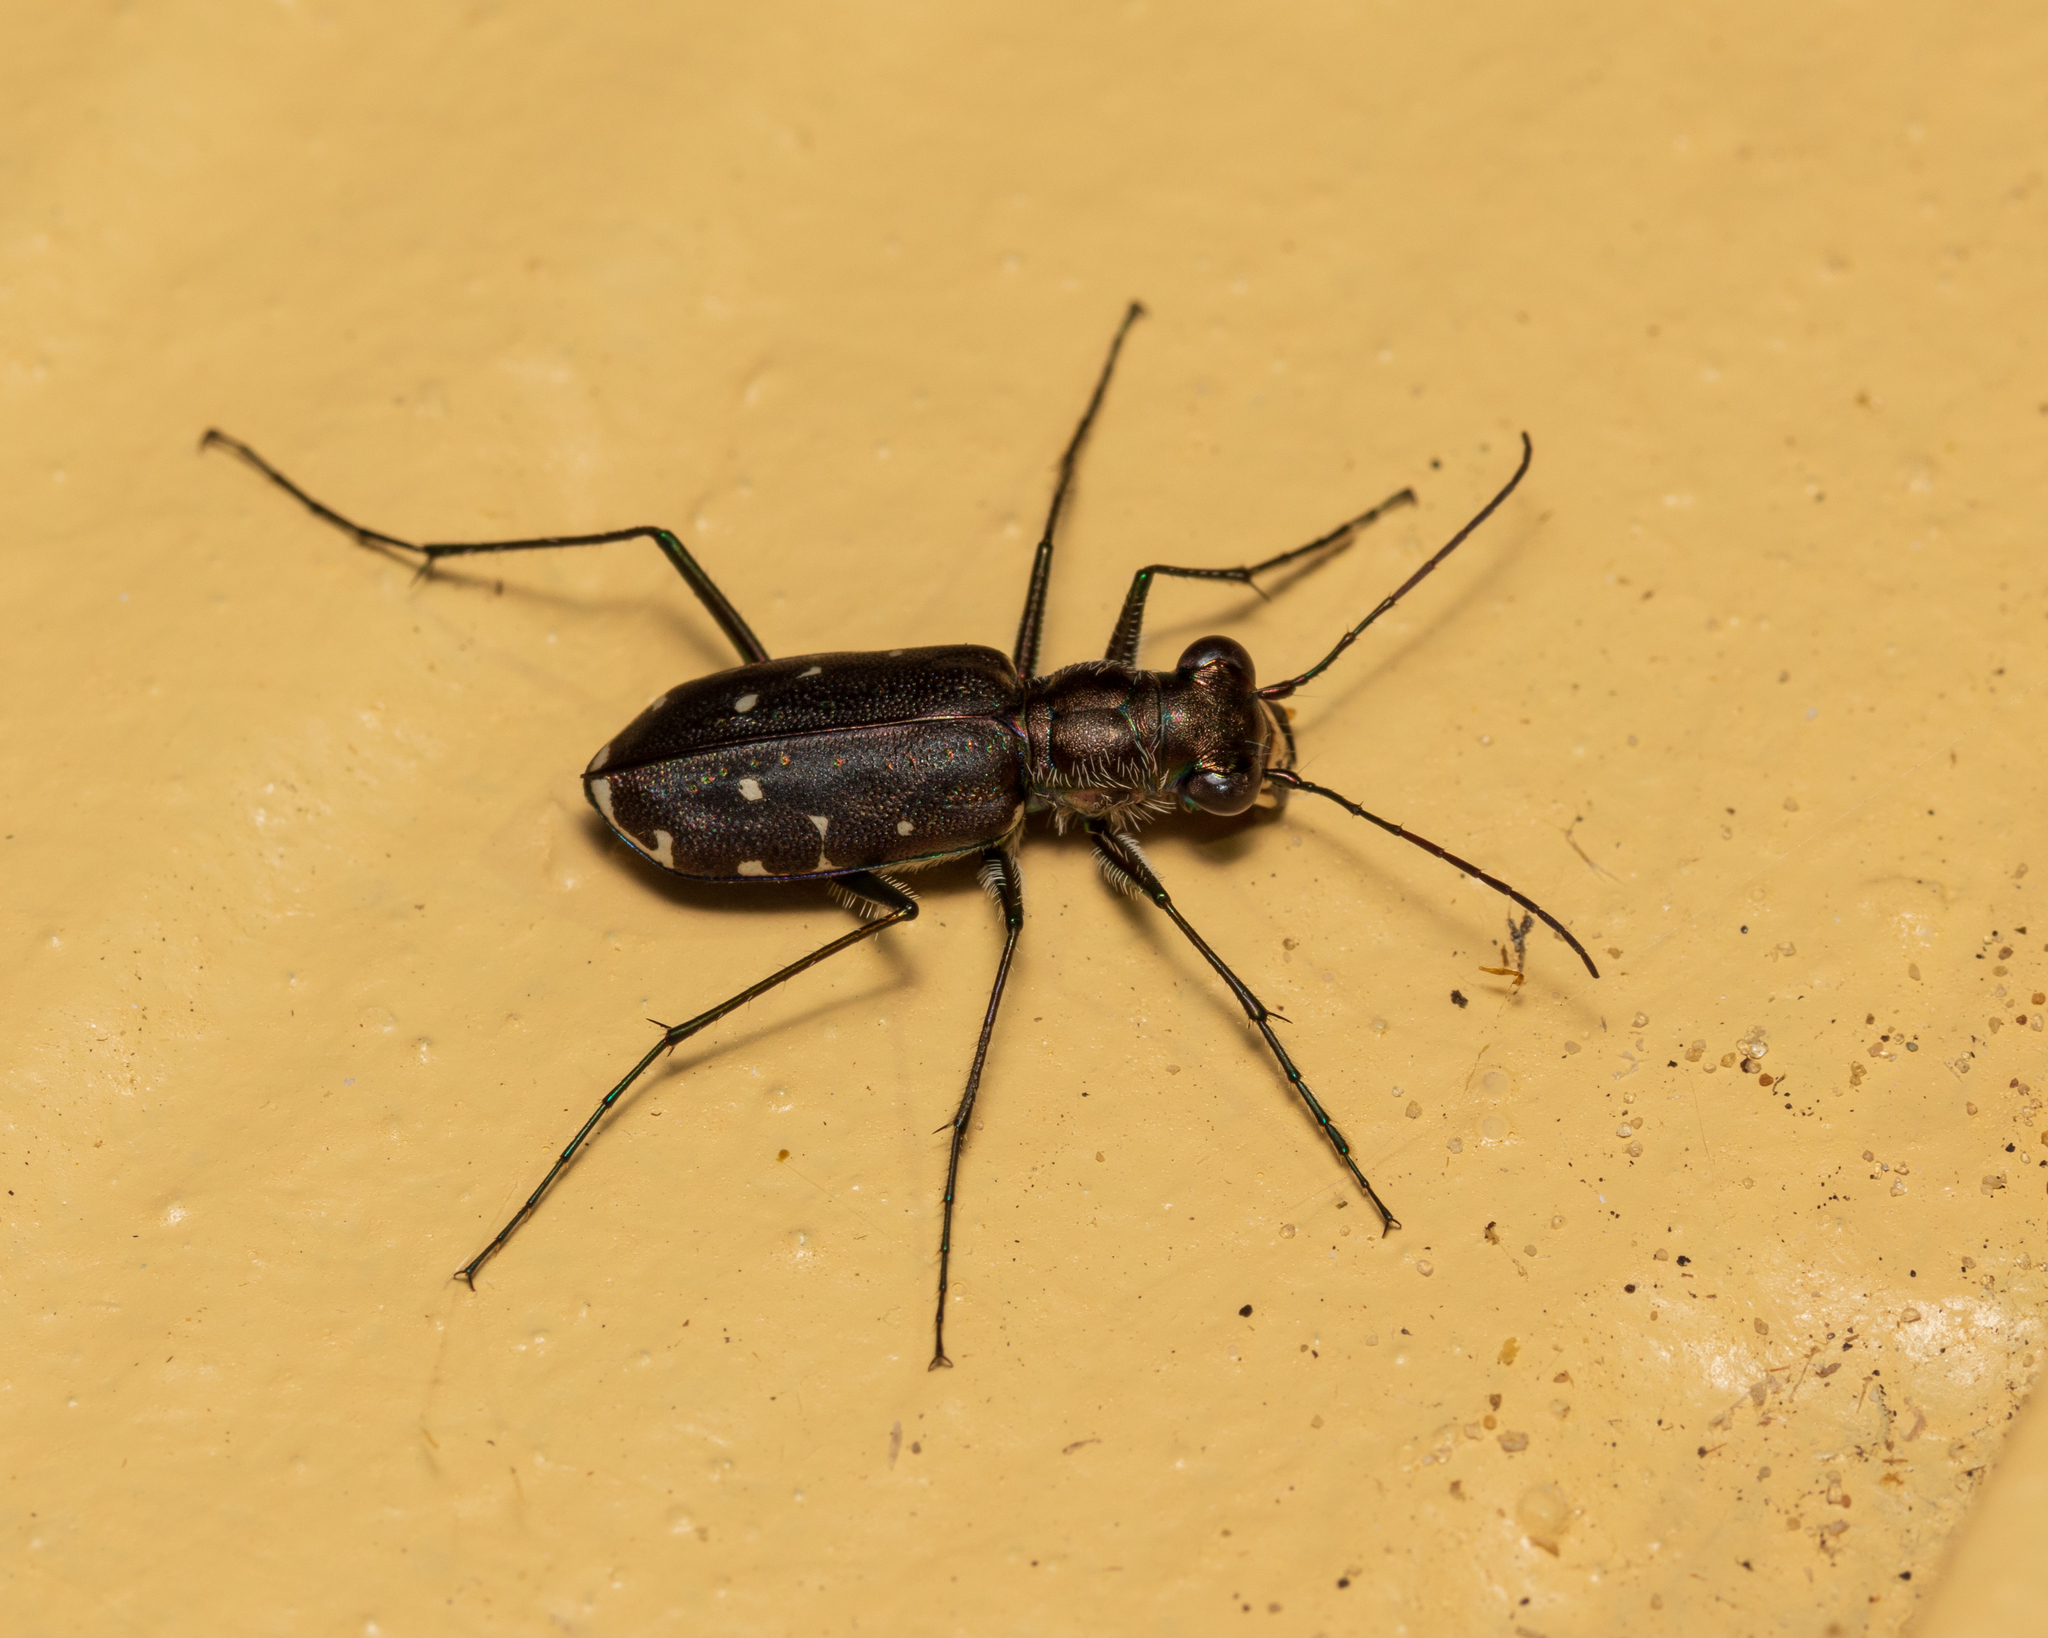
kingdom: Animalia
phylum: Arthropoda
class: Insecta
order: Coleoptera
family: Carabidae
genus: Cicindela
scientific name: Cicindela punctulata
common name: Punctured tiger beetle
